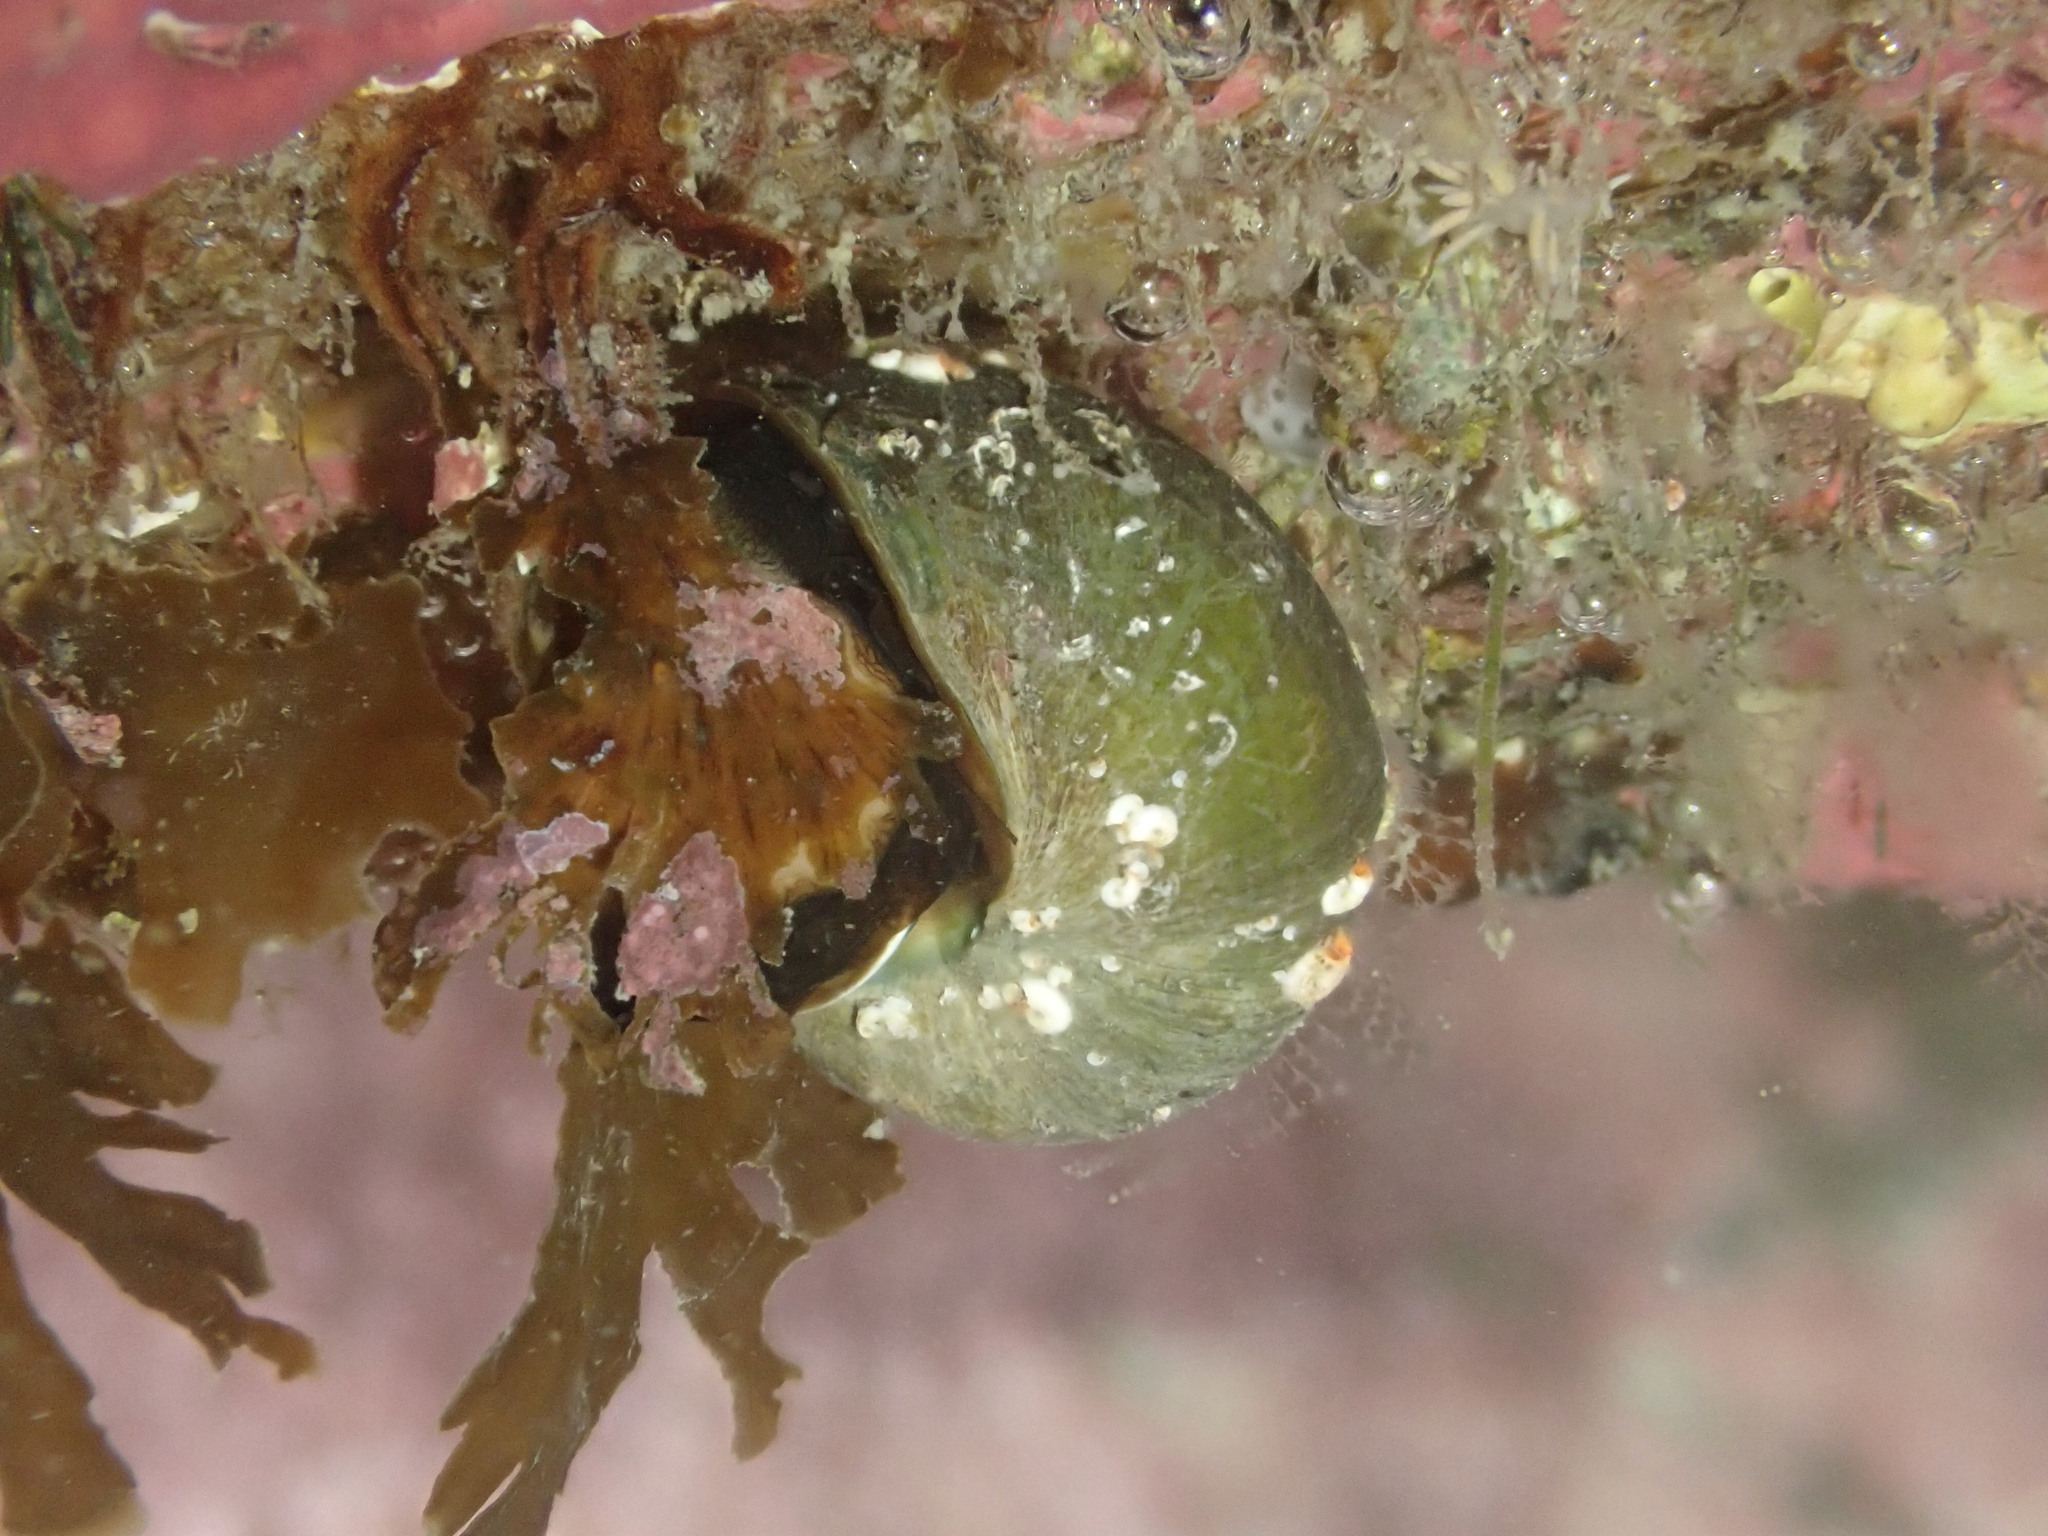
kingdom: Animalia
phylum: Mollusca
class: Gastropoda
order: Trochida
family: Turbinidae
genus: Lunella
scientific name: Lunella smaragda
